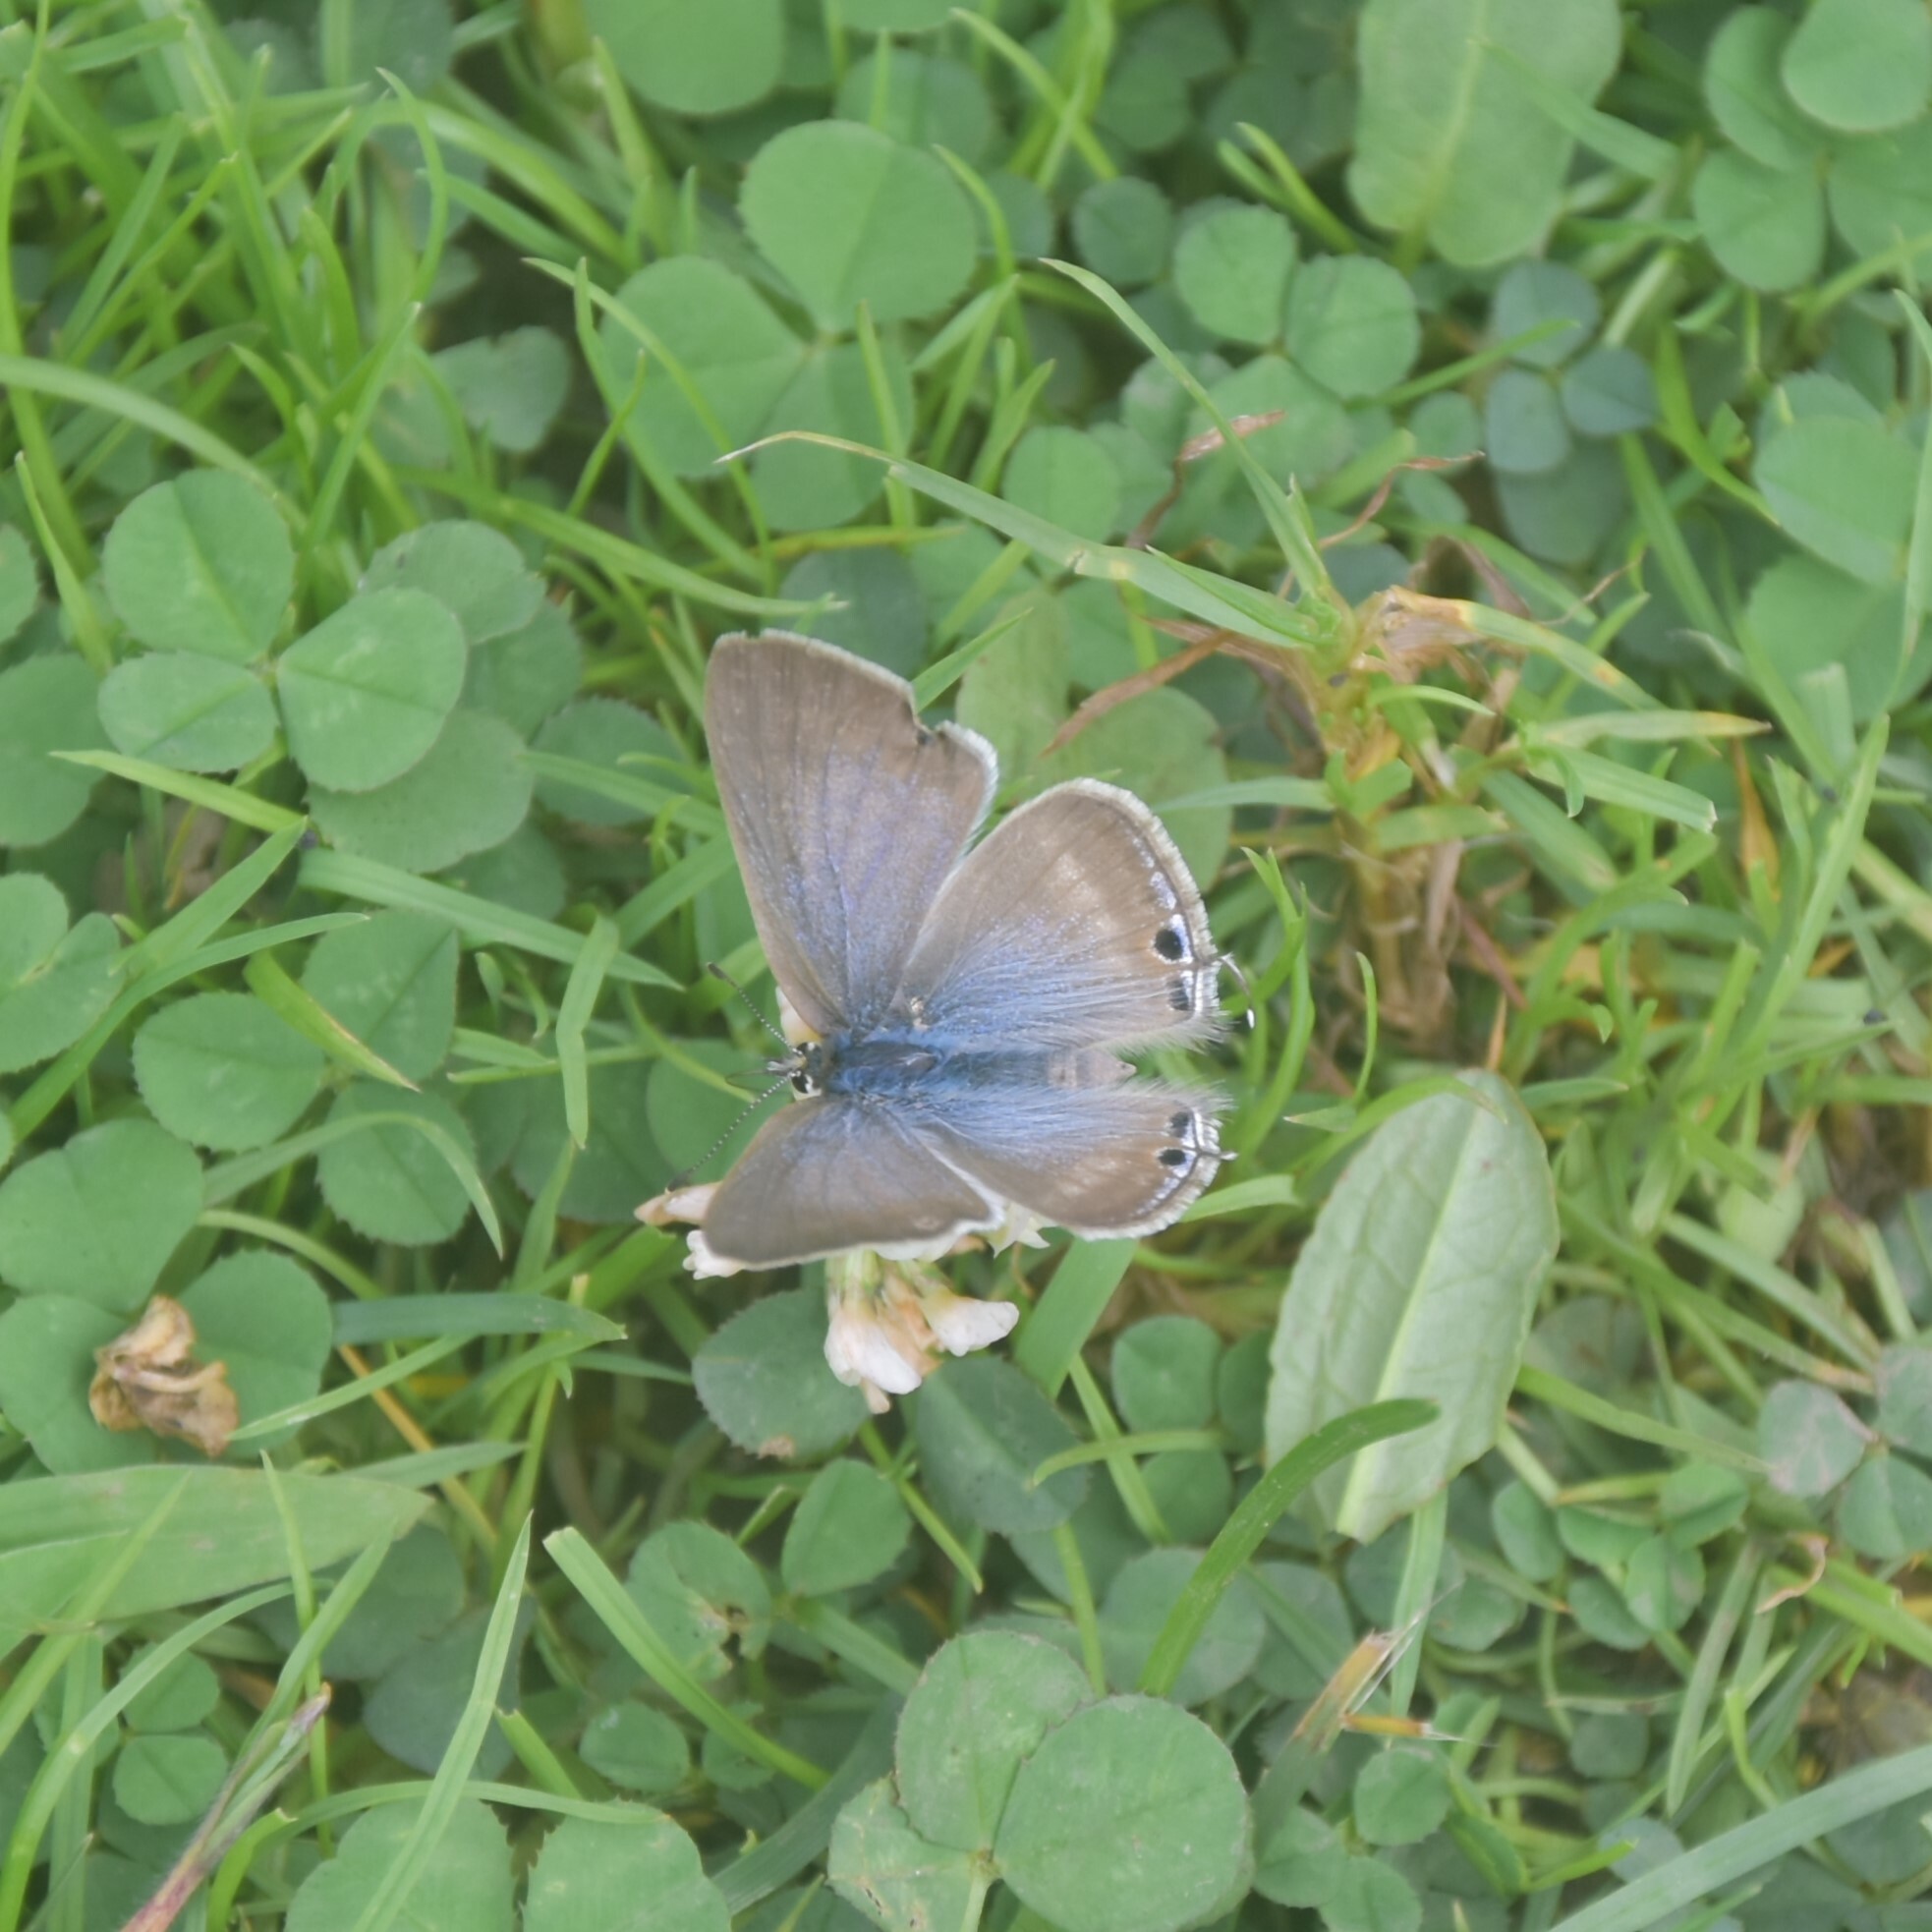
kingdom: Animalia
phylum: Arthropoda
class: Insecta
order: Lepidoptera
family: Lycaenidae
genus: Lampides
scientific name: Lampides boeticus
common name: Long-tailed blue
